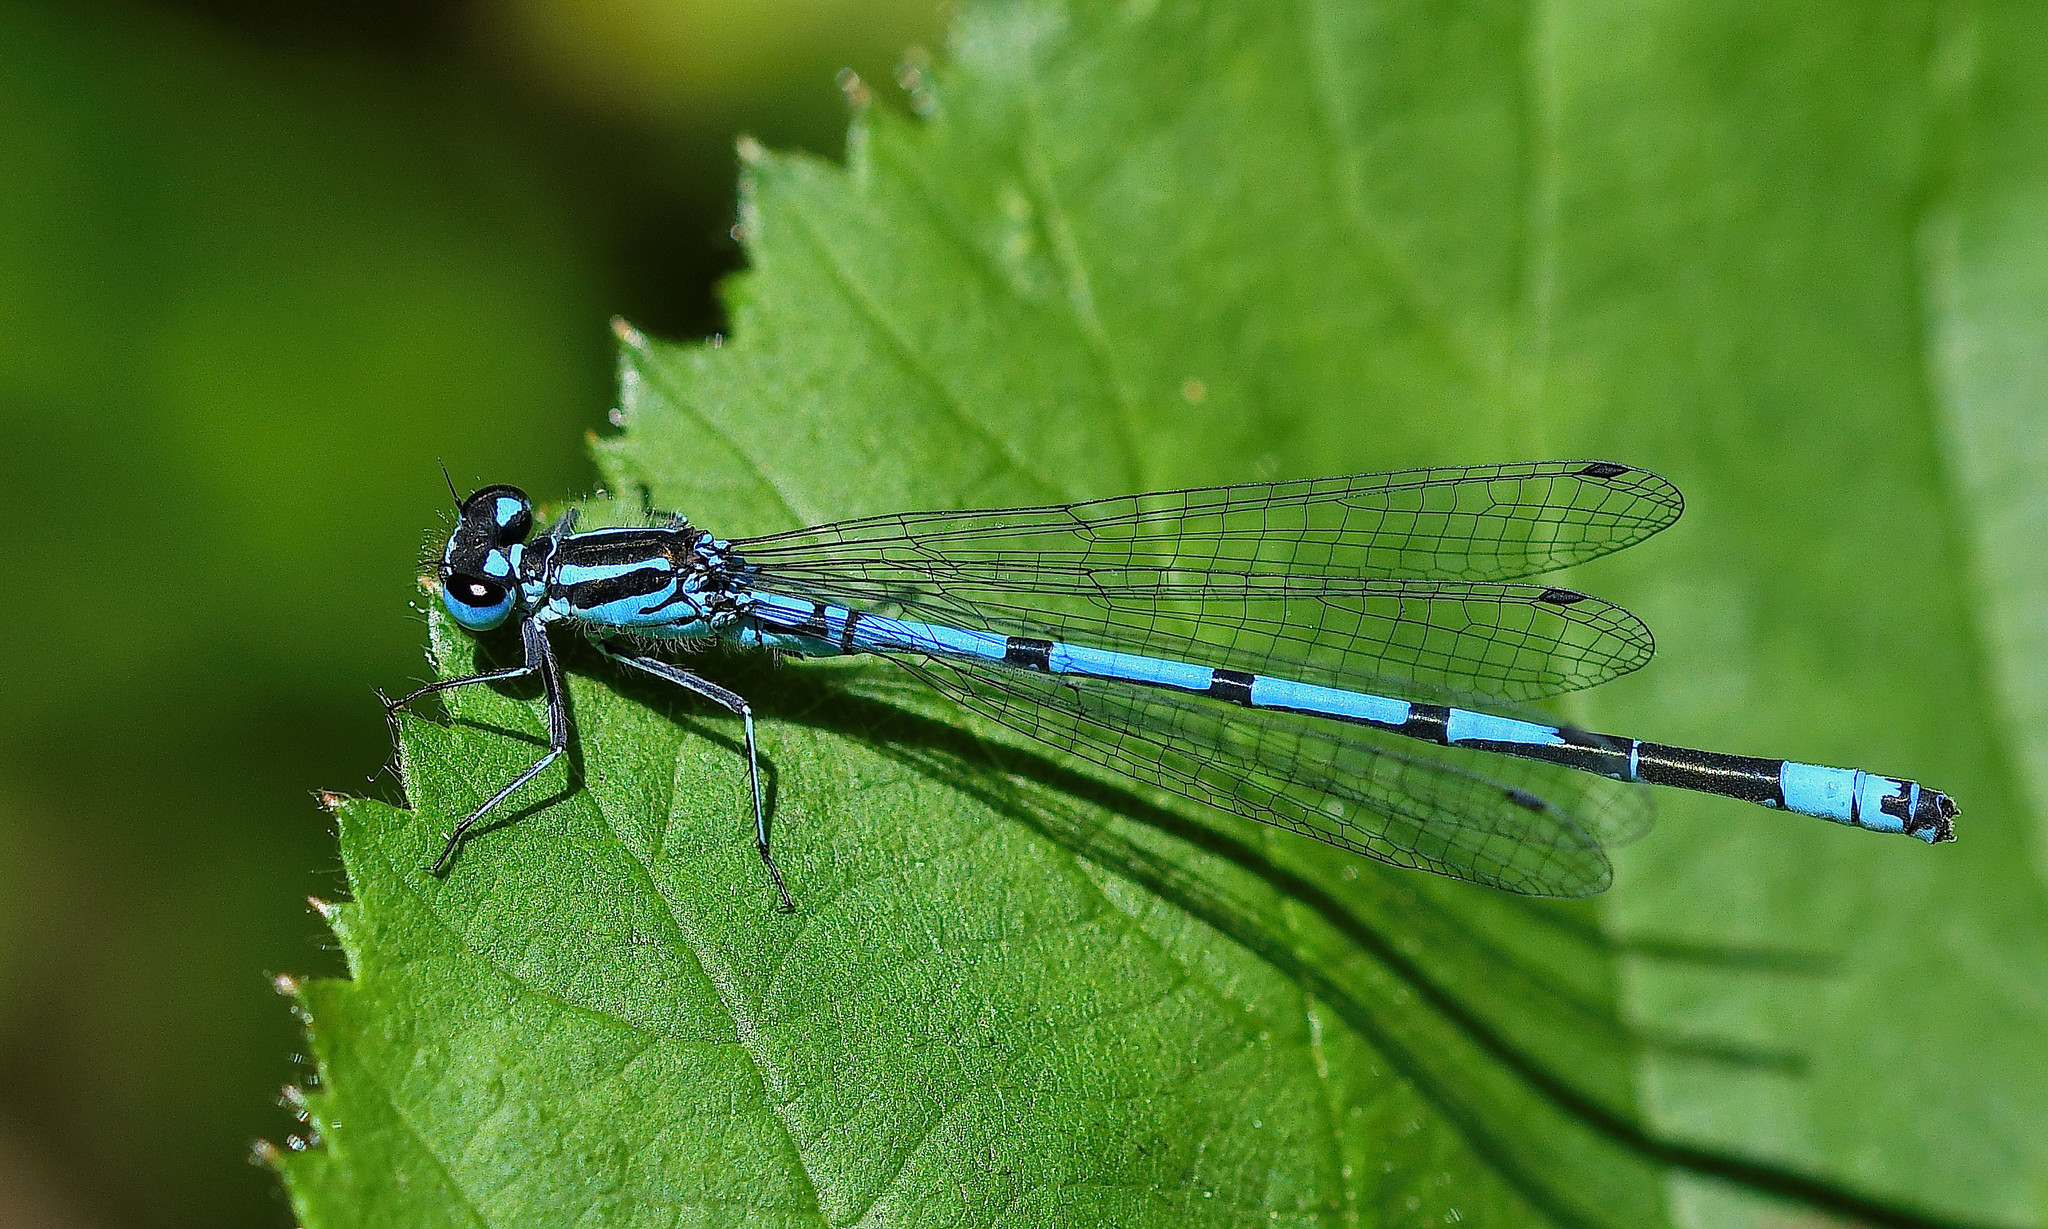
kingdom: Animalia
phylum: Arthropoda
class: Insecta
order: Odonata
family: Coenagrionidae
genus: Coenagrion
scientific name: Coenagrion puella
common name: Azure damselfly
